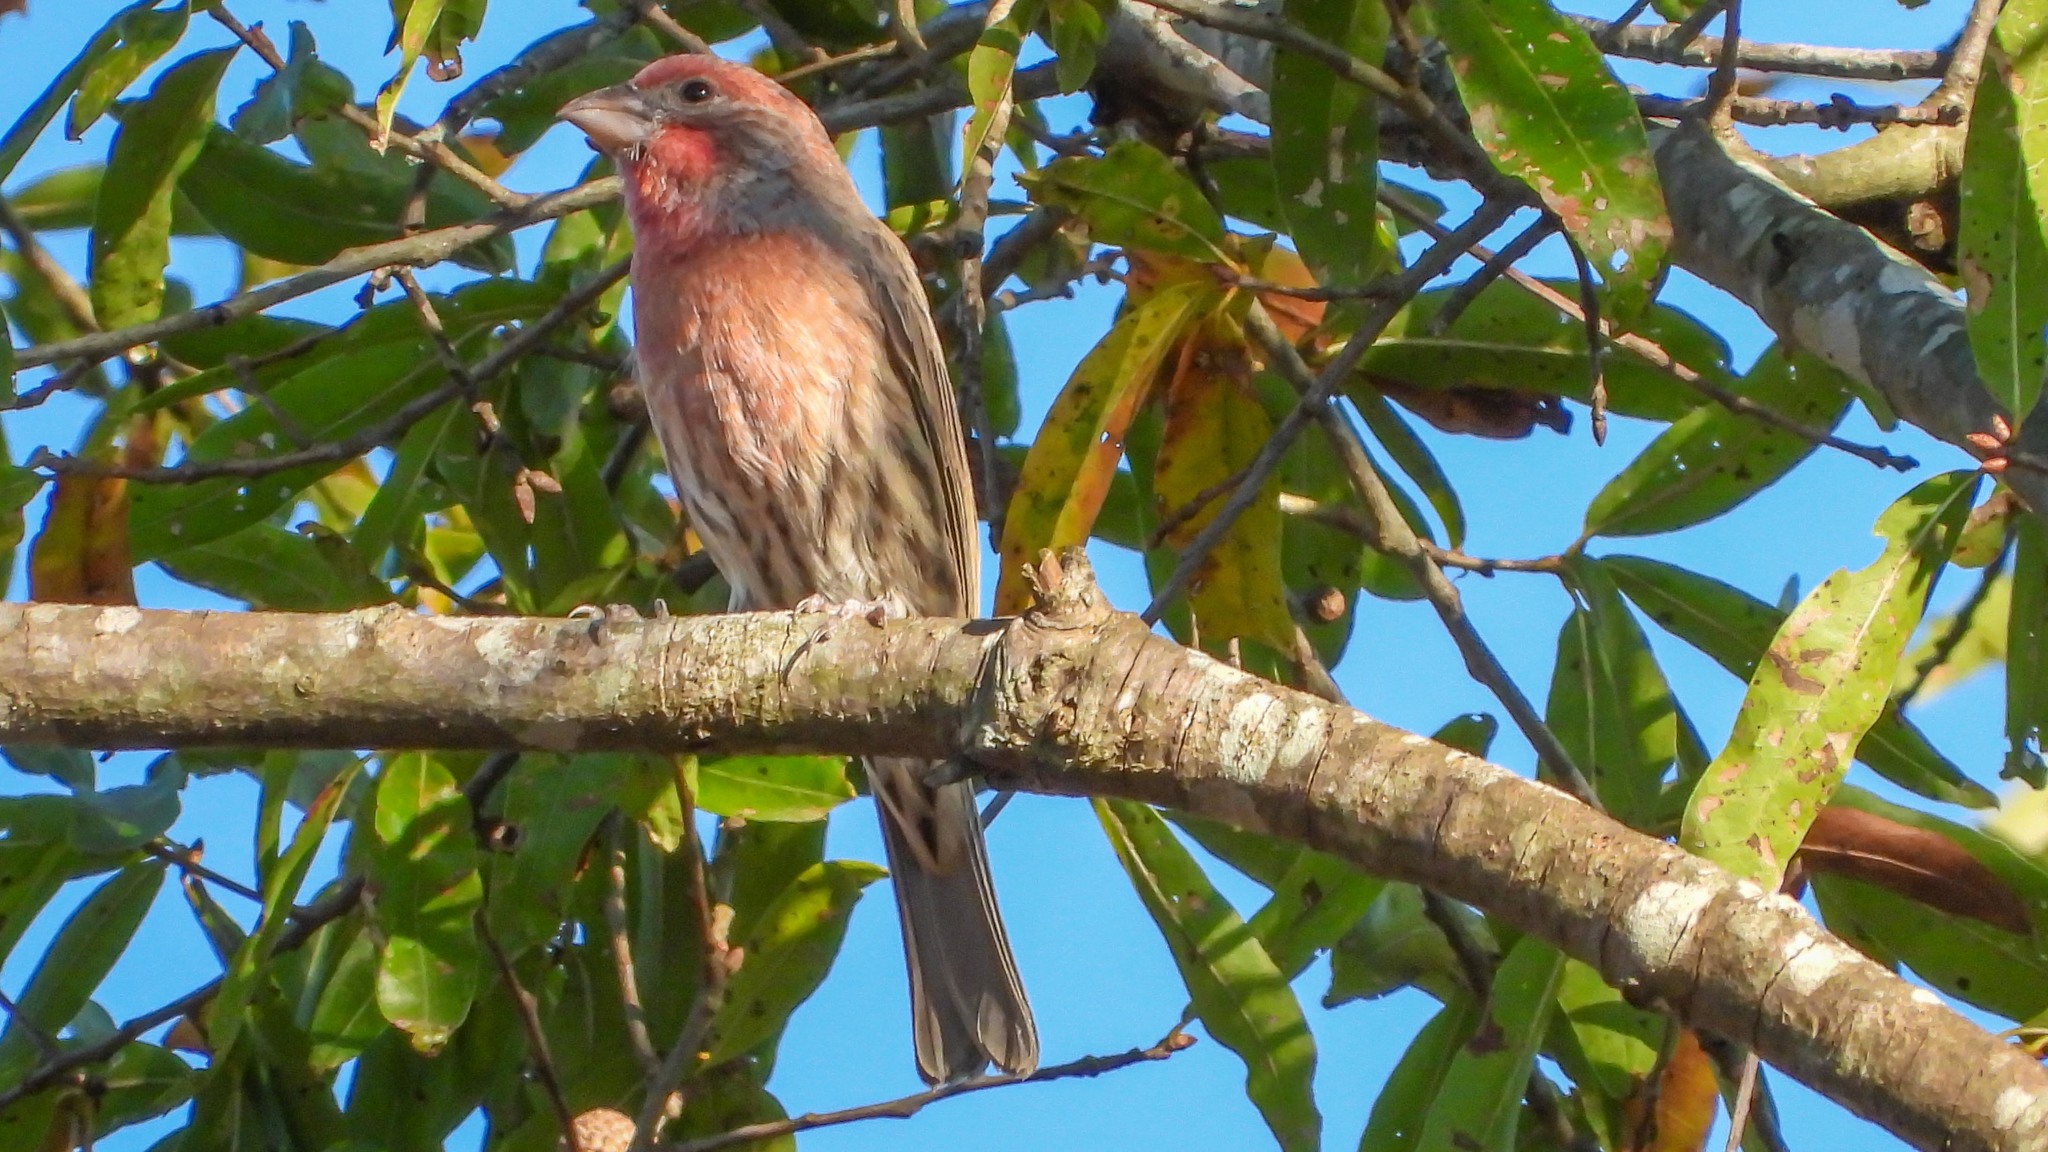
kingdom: Animalia
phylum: Chordata
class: Aves
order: Passeriformes
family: Fringillidae
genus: Haemorhous
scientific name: Haemorhous mexicanus
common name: House finch
